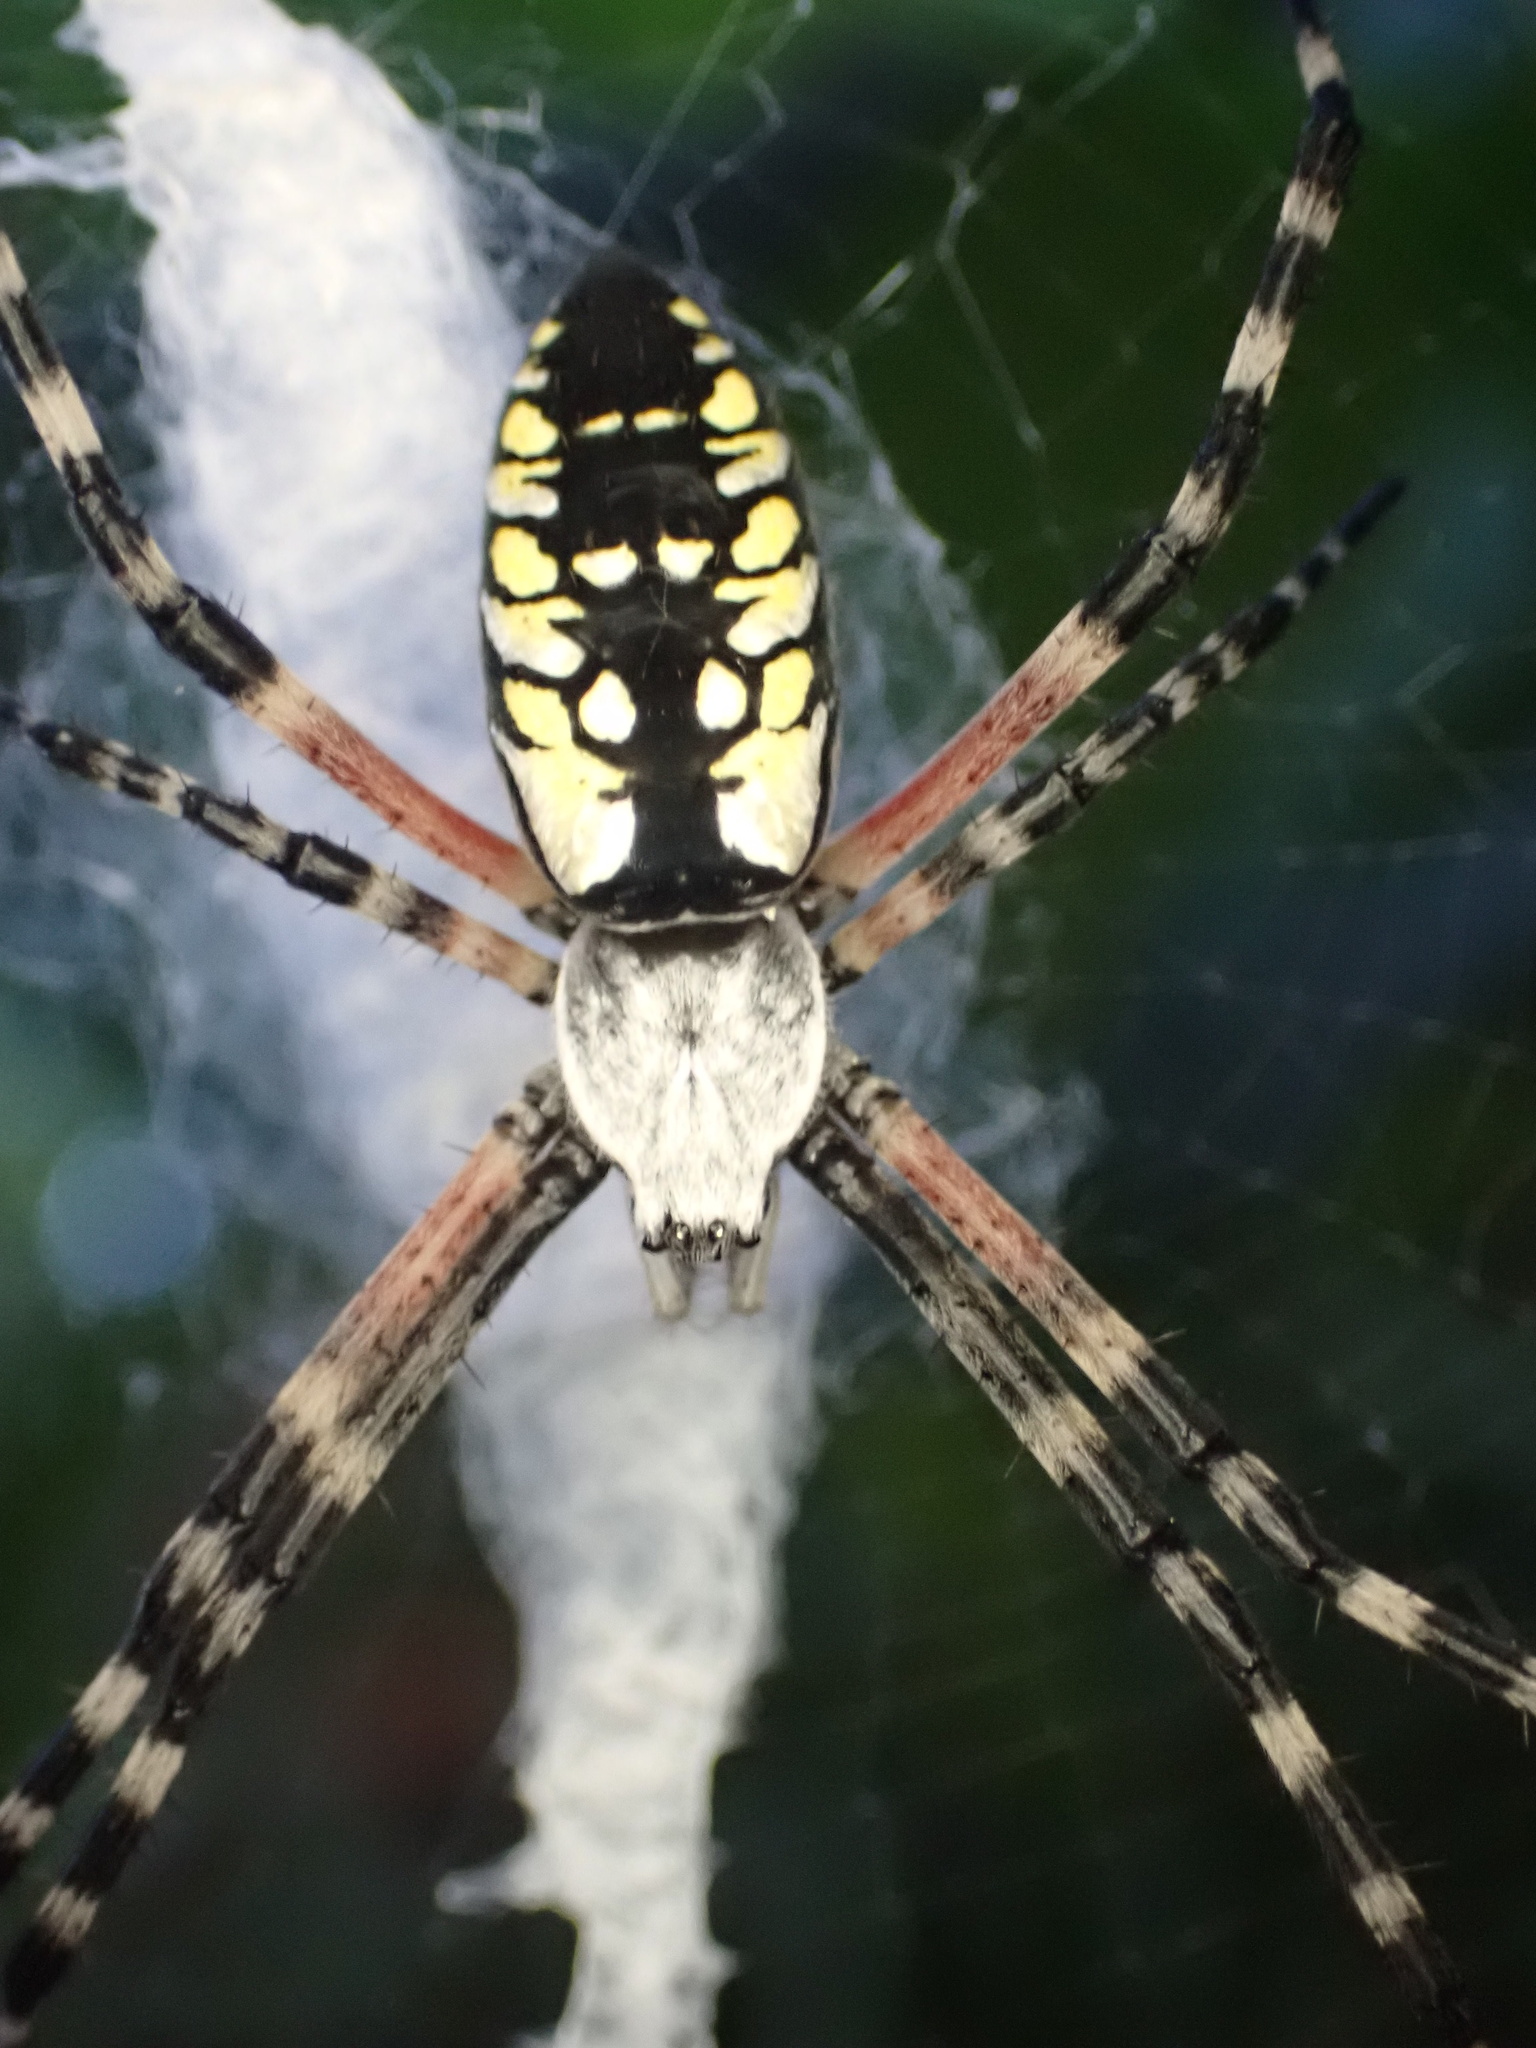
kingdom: Animalia
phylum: Arthropoda
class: Arachnida
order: Araneae
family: Araneidae
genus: Argiope
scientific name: Argiope aurantia
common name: Orb weavers
